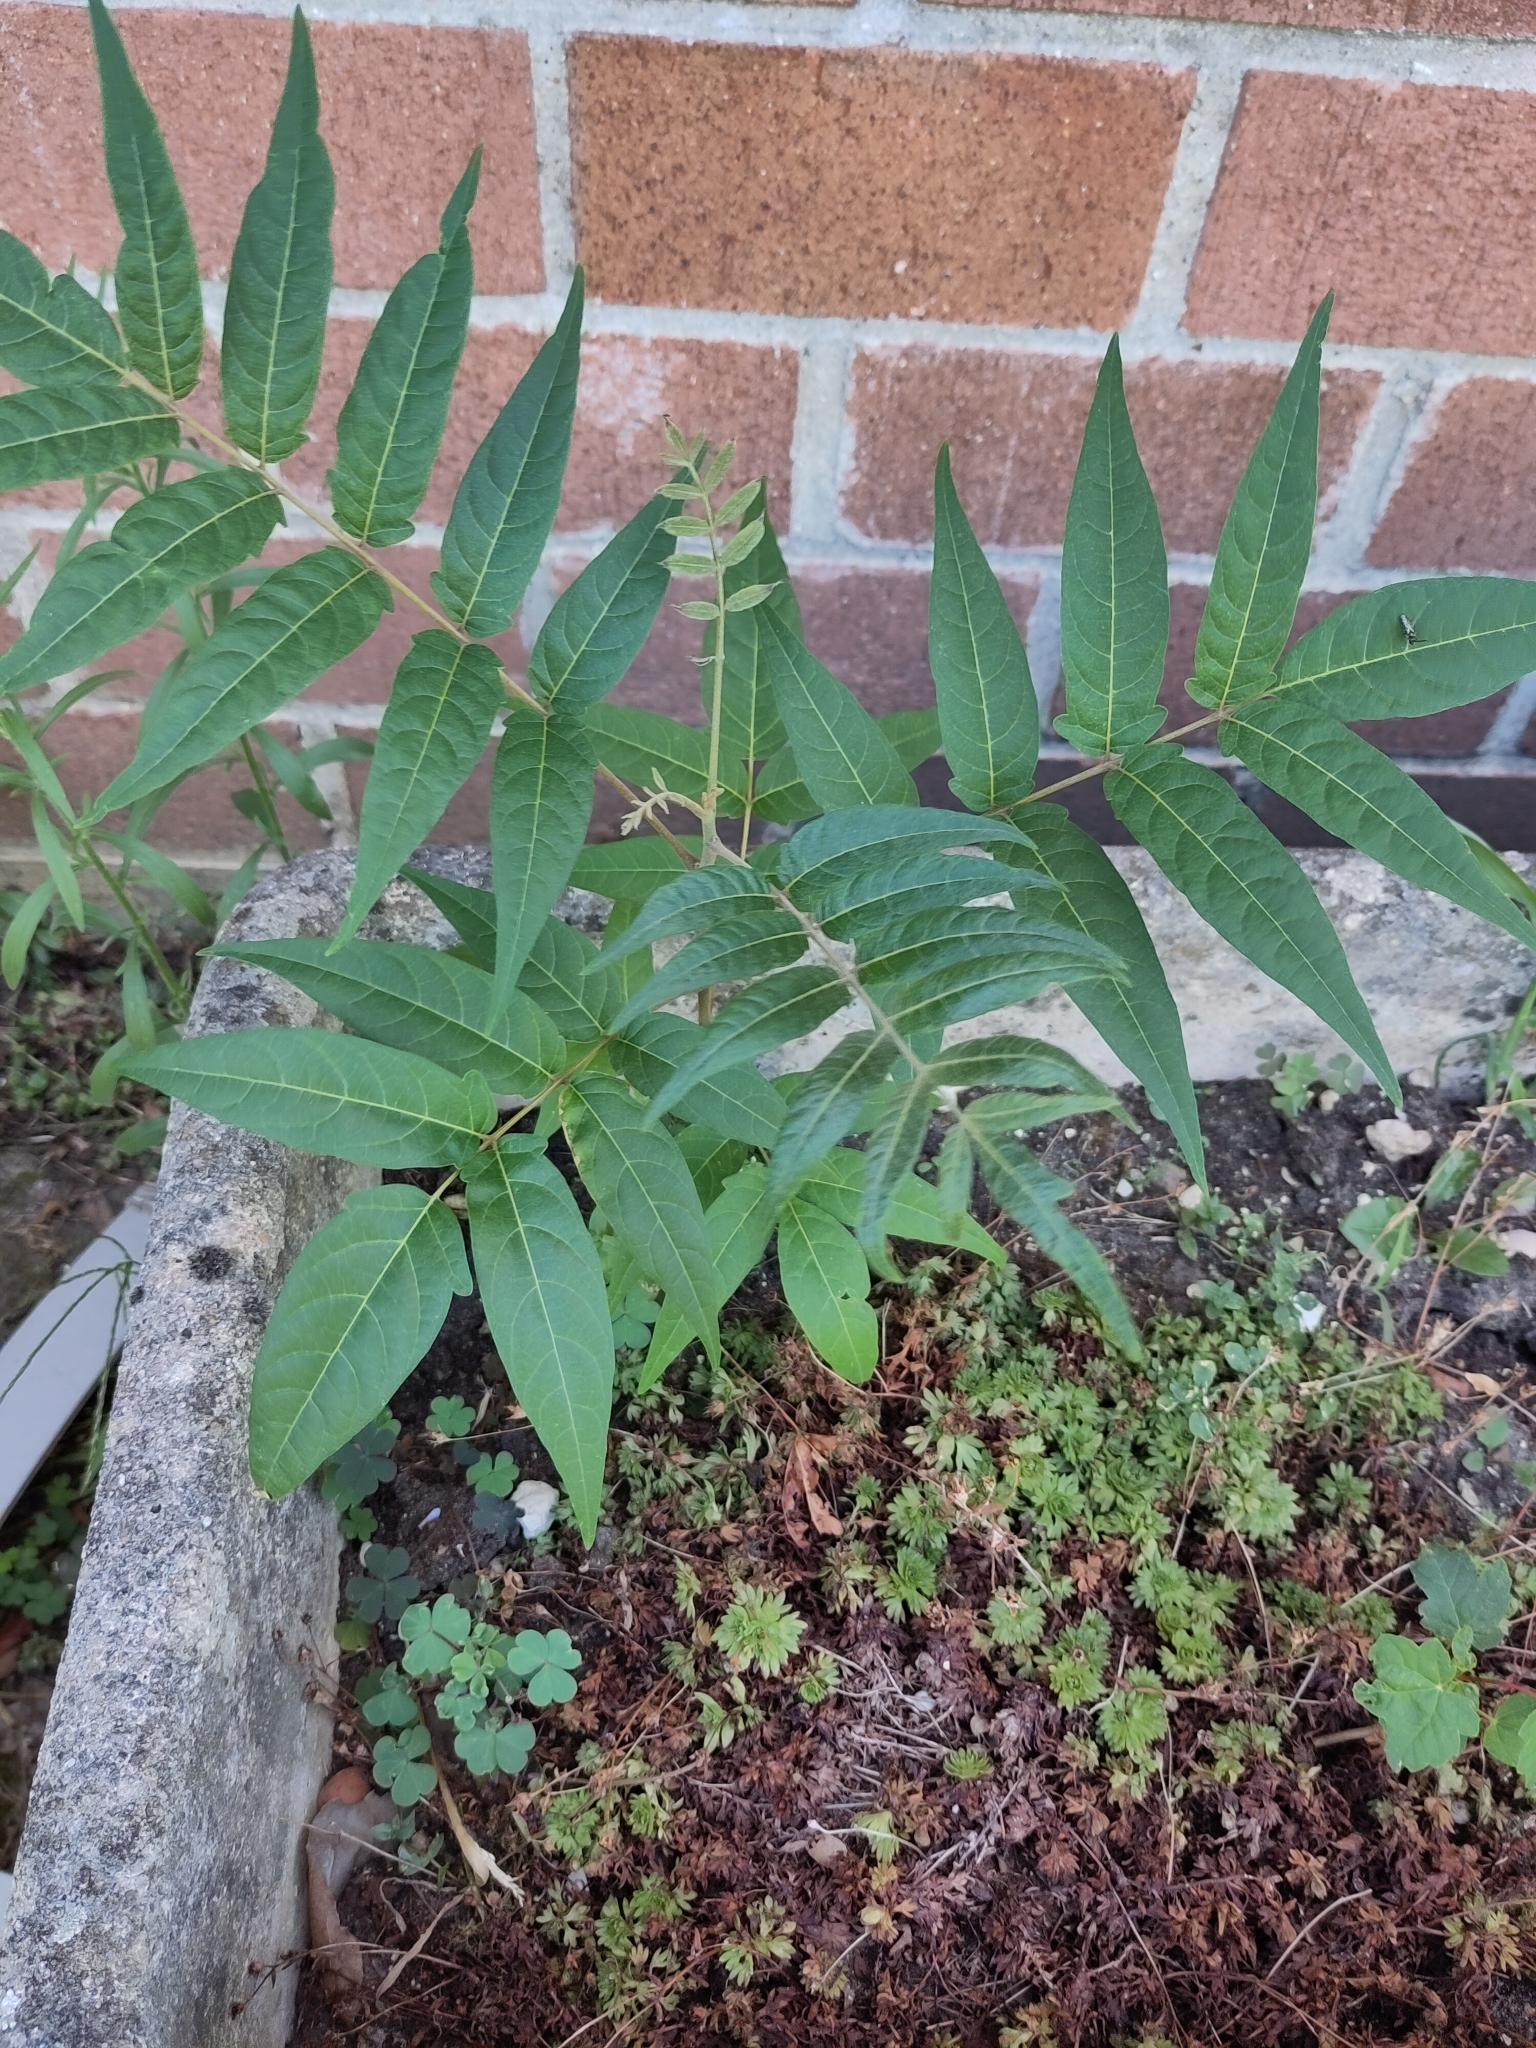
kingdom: Plantae
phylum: Tracheophyta
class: Magnoliopsida
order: Sapindales
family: Simaroubaceae
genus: Ailanthus
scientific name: Ailanthus altissima
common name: Tree-of-heaven
